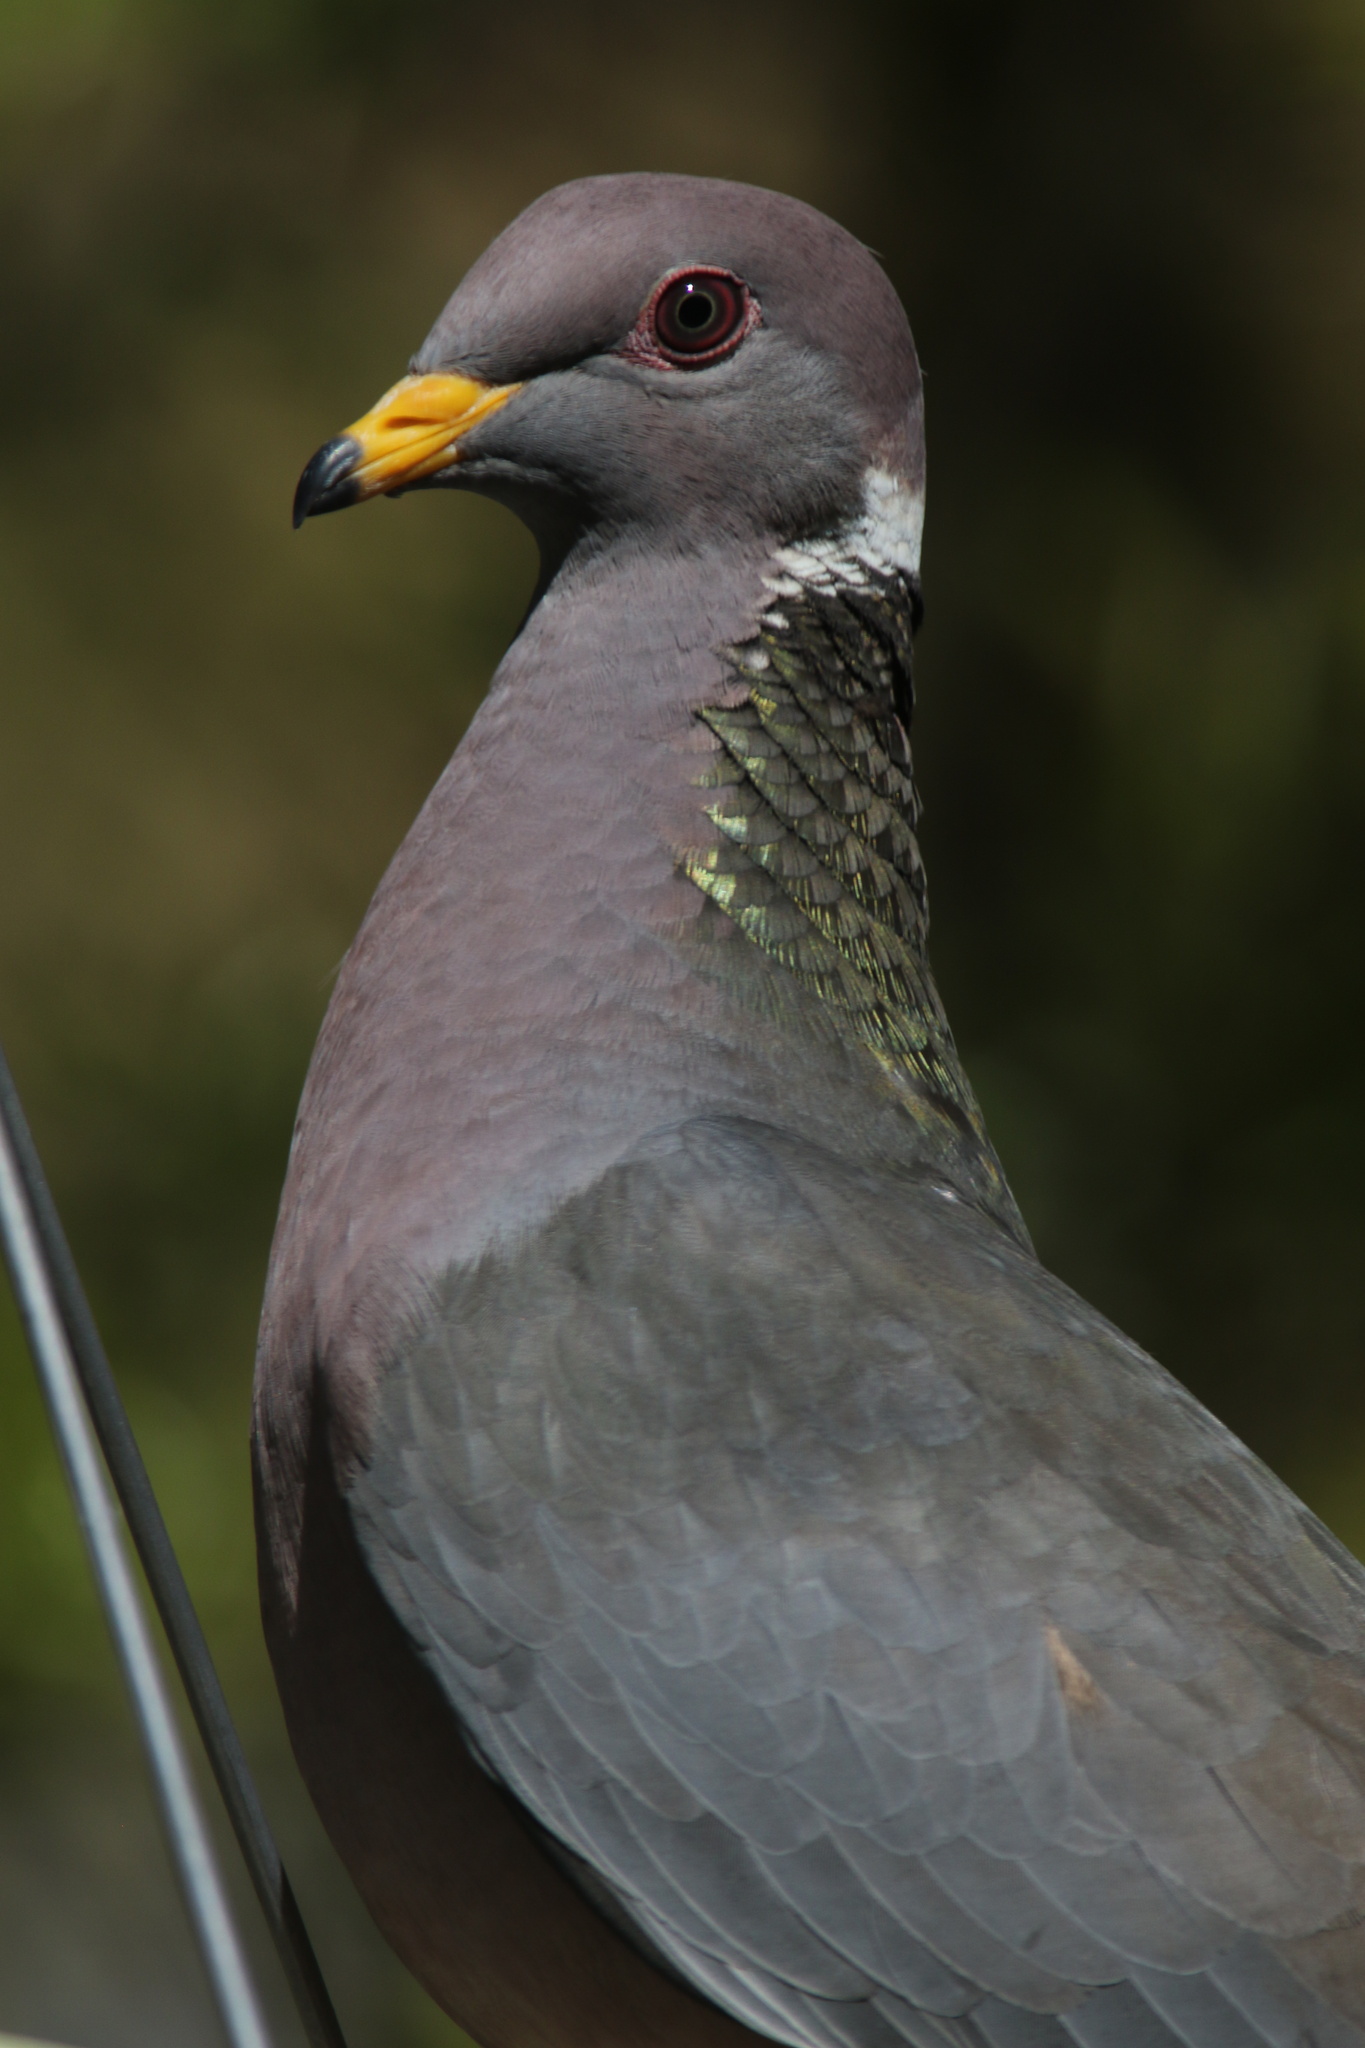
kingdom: Animalia
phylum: Chordata
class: Aves
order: Columbiformes
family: Columbidae
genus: Patagioenas
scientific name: Patagioenas fasciata
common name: Band-tailed pigeon
